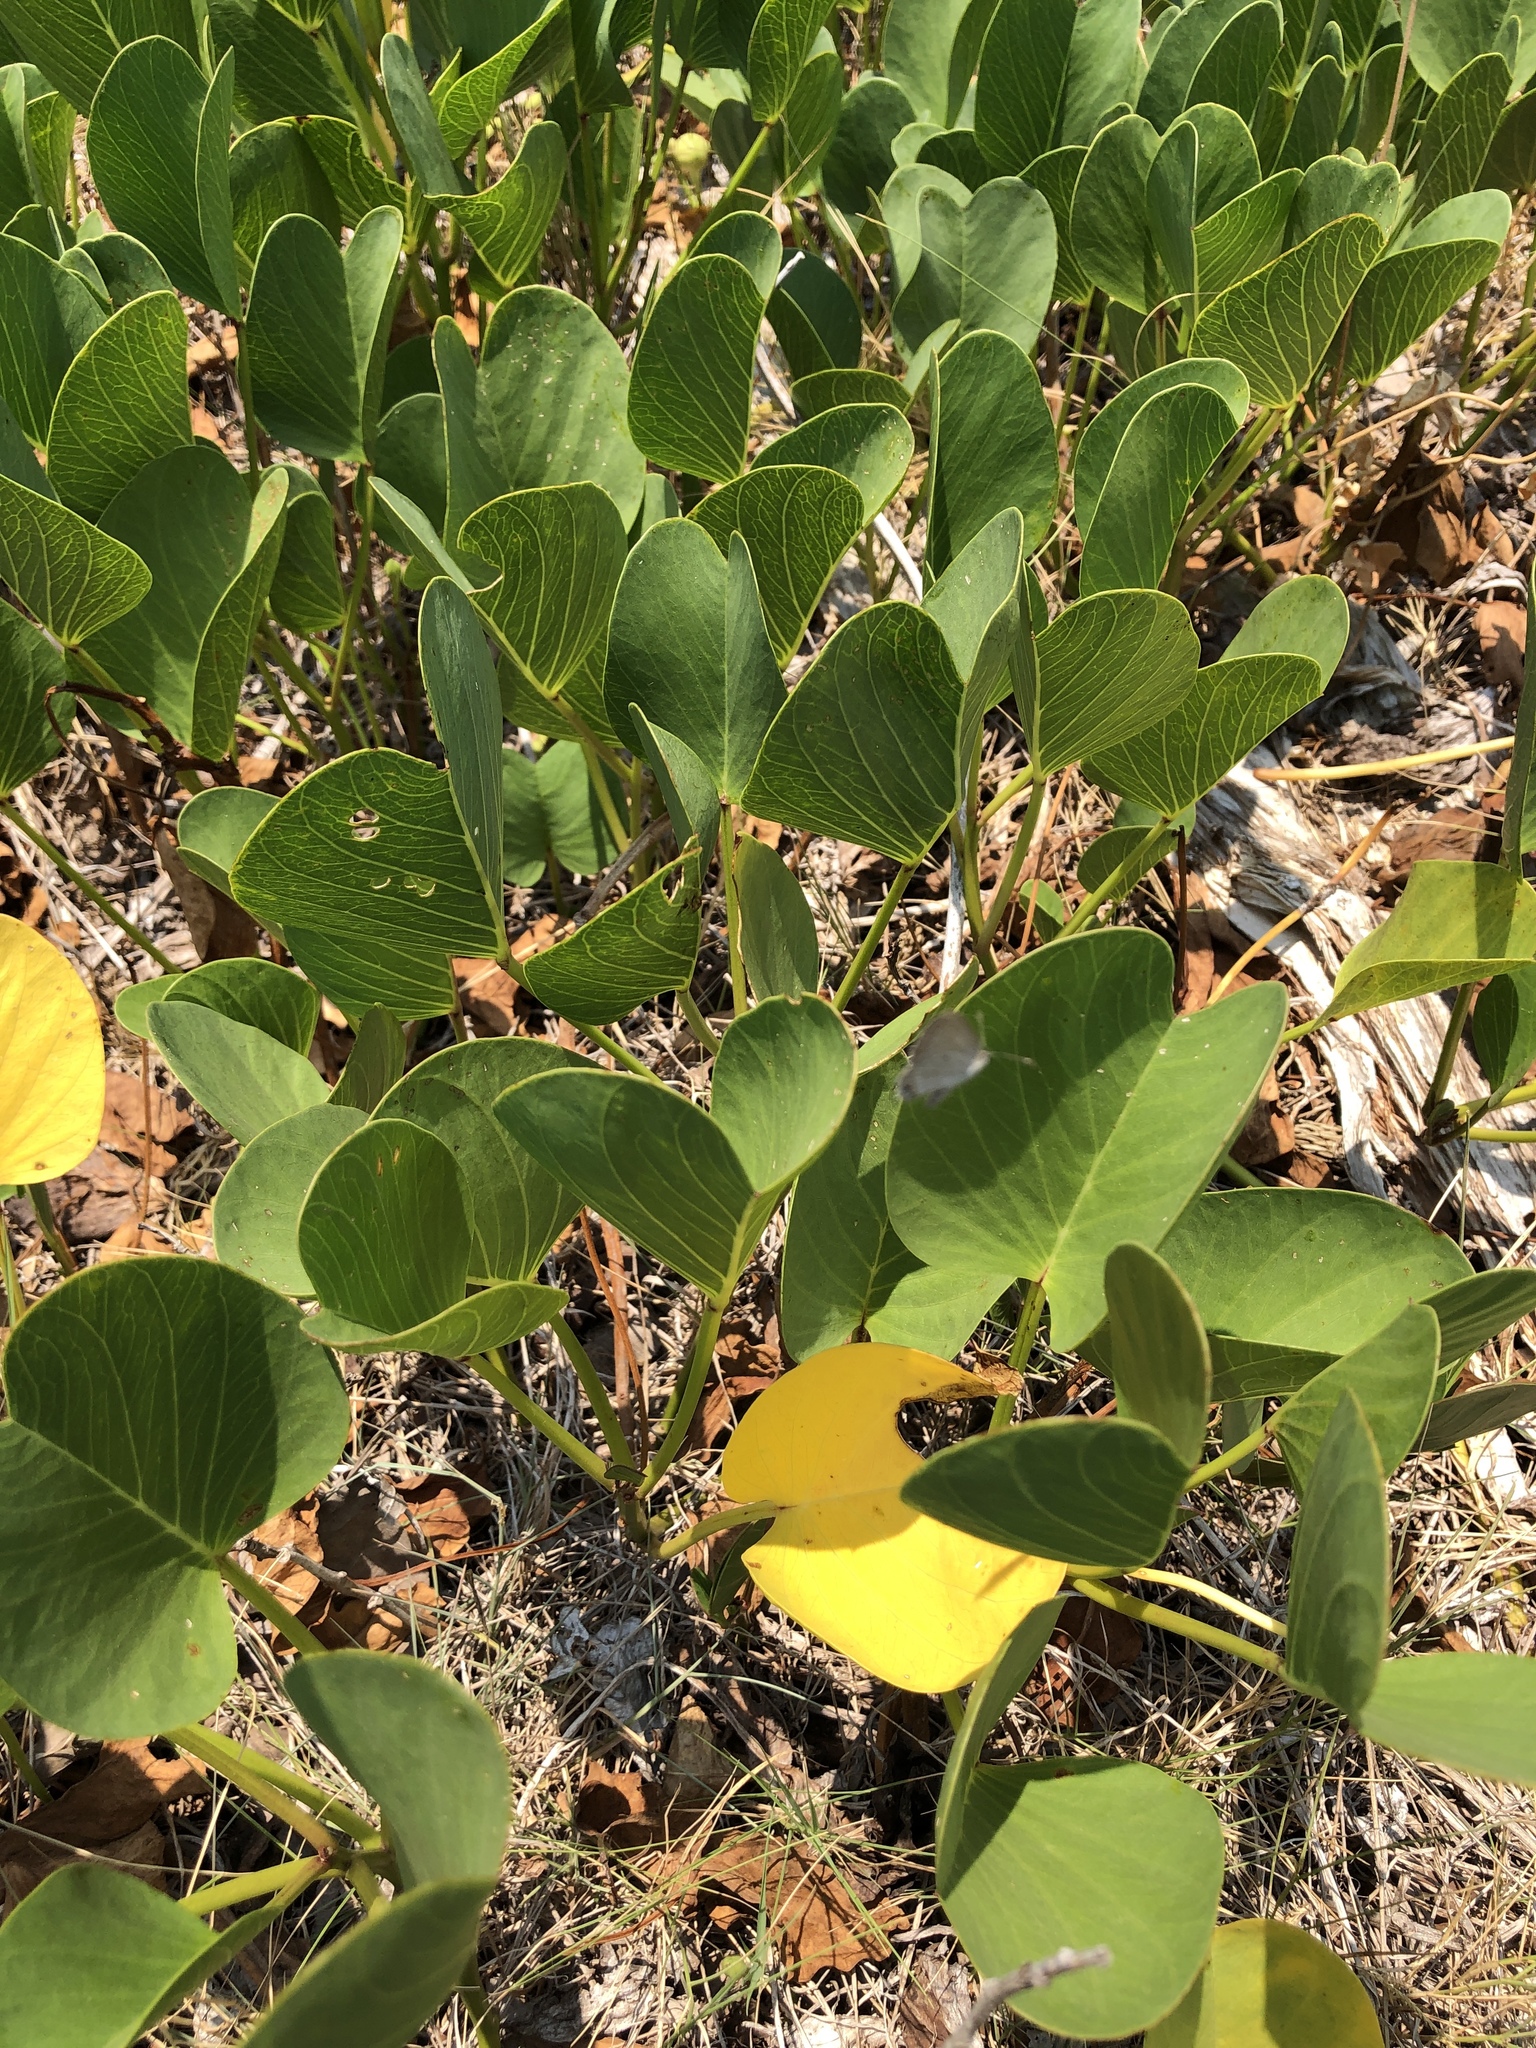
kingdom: Plantae
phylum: Tracheophyta
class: Magnoliopsida
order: Solanales
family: Convolvulaceae
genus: Ipomoea
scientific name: Ipomoea pes-caprae
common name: Beach morning glory
